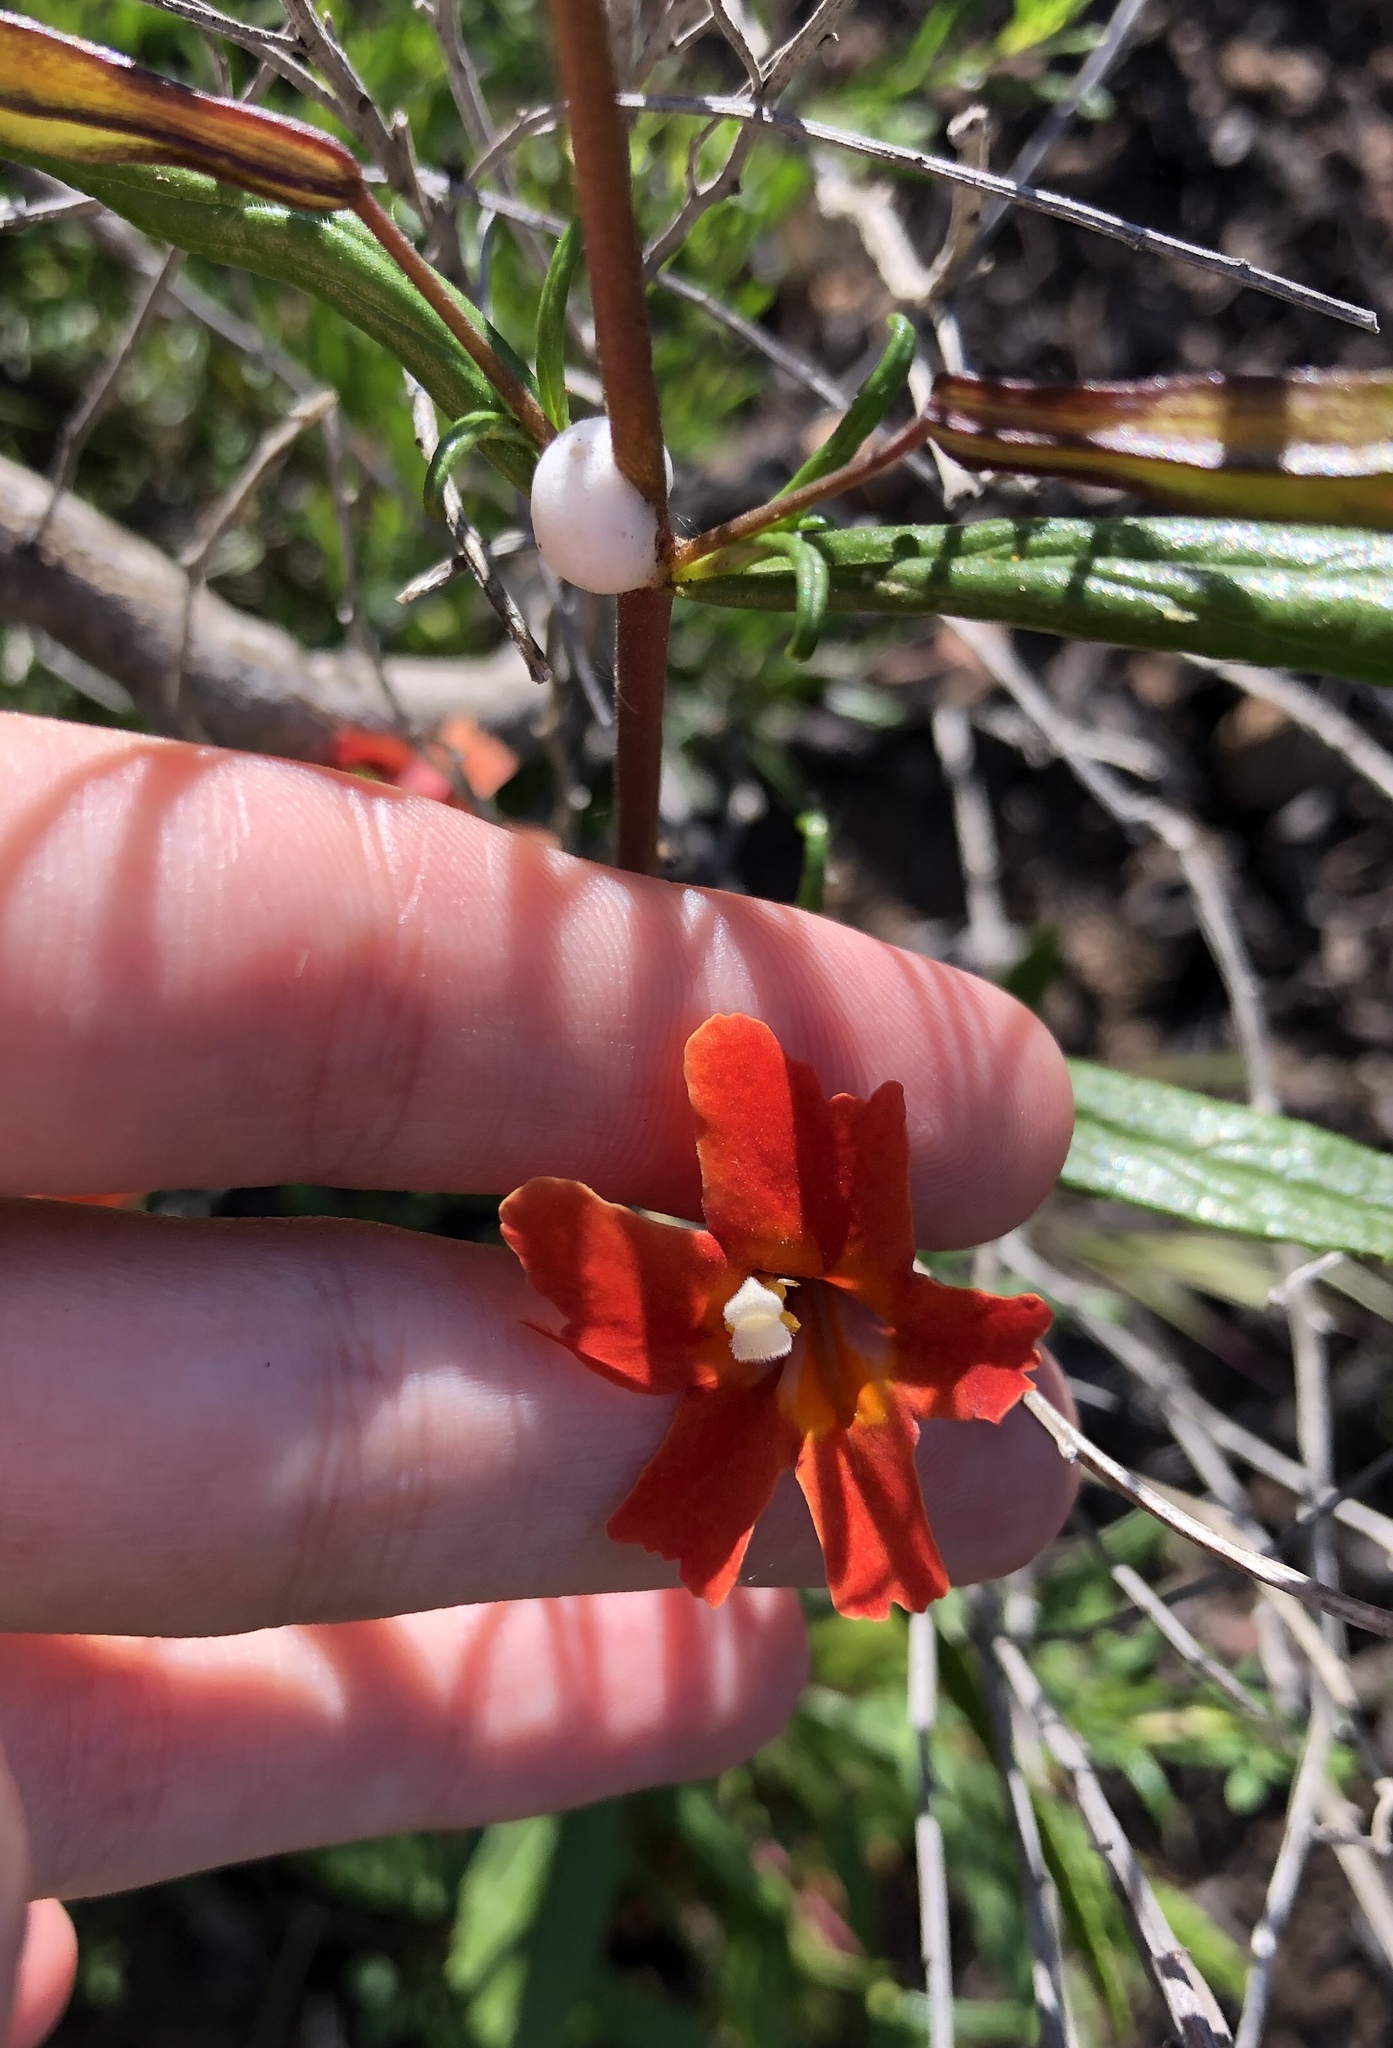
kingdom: Plantae
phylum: Tracheophyta
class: Magnoliopsida
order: Lamiales
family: Phrymaceae
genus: Diplacus
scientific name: Diplacus puniceus
